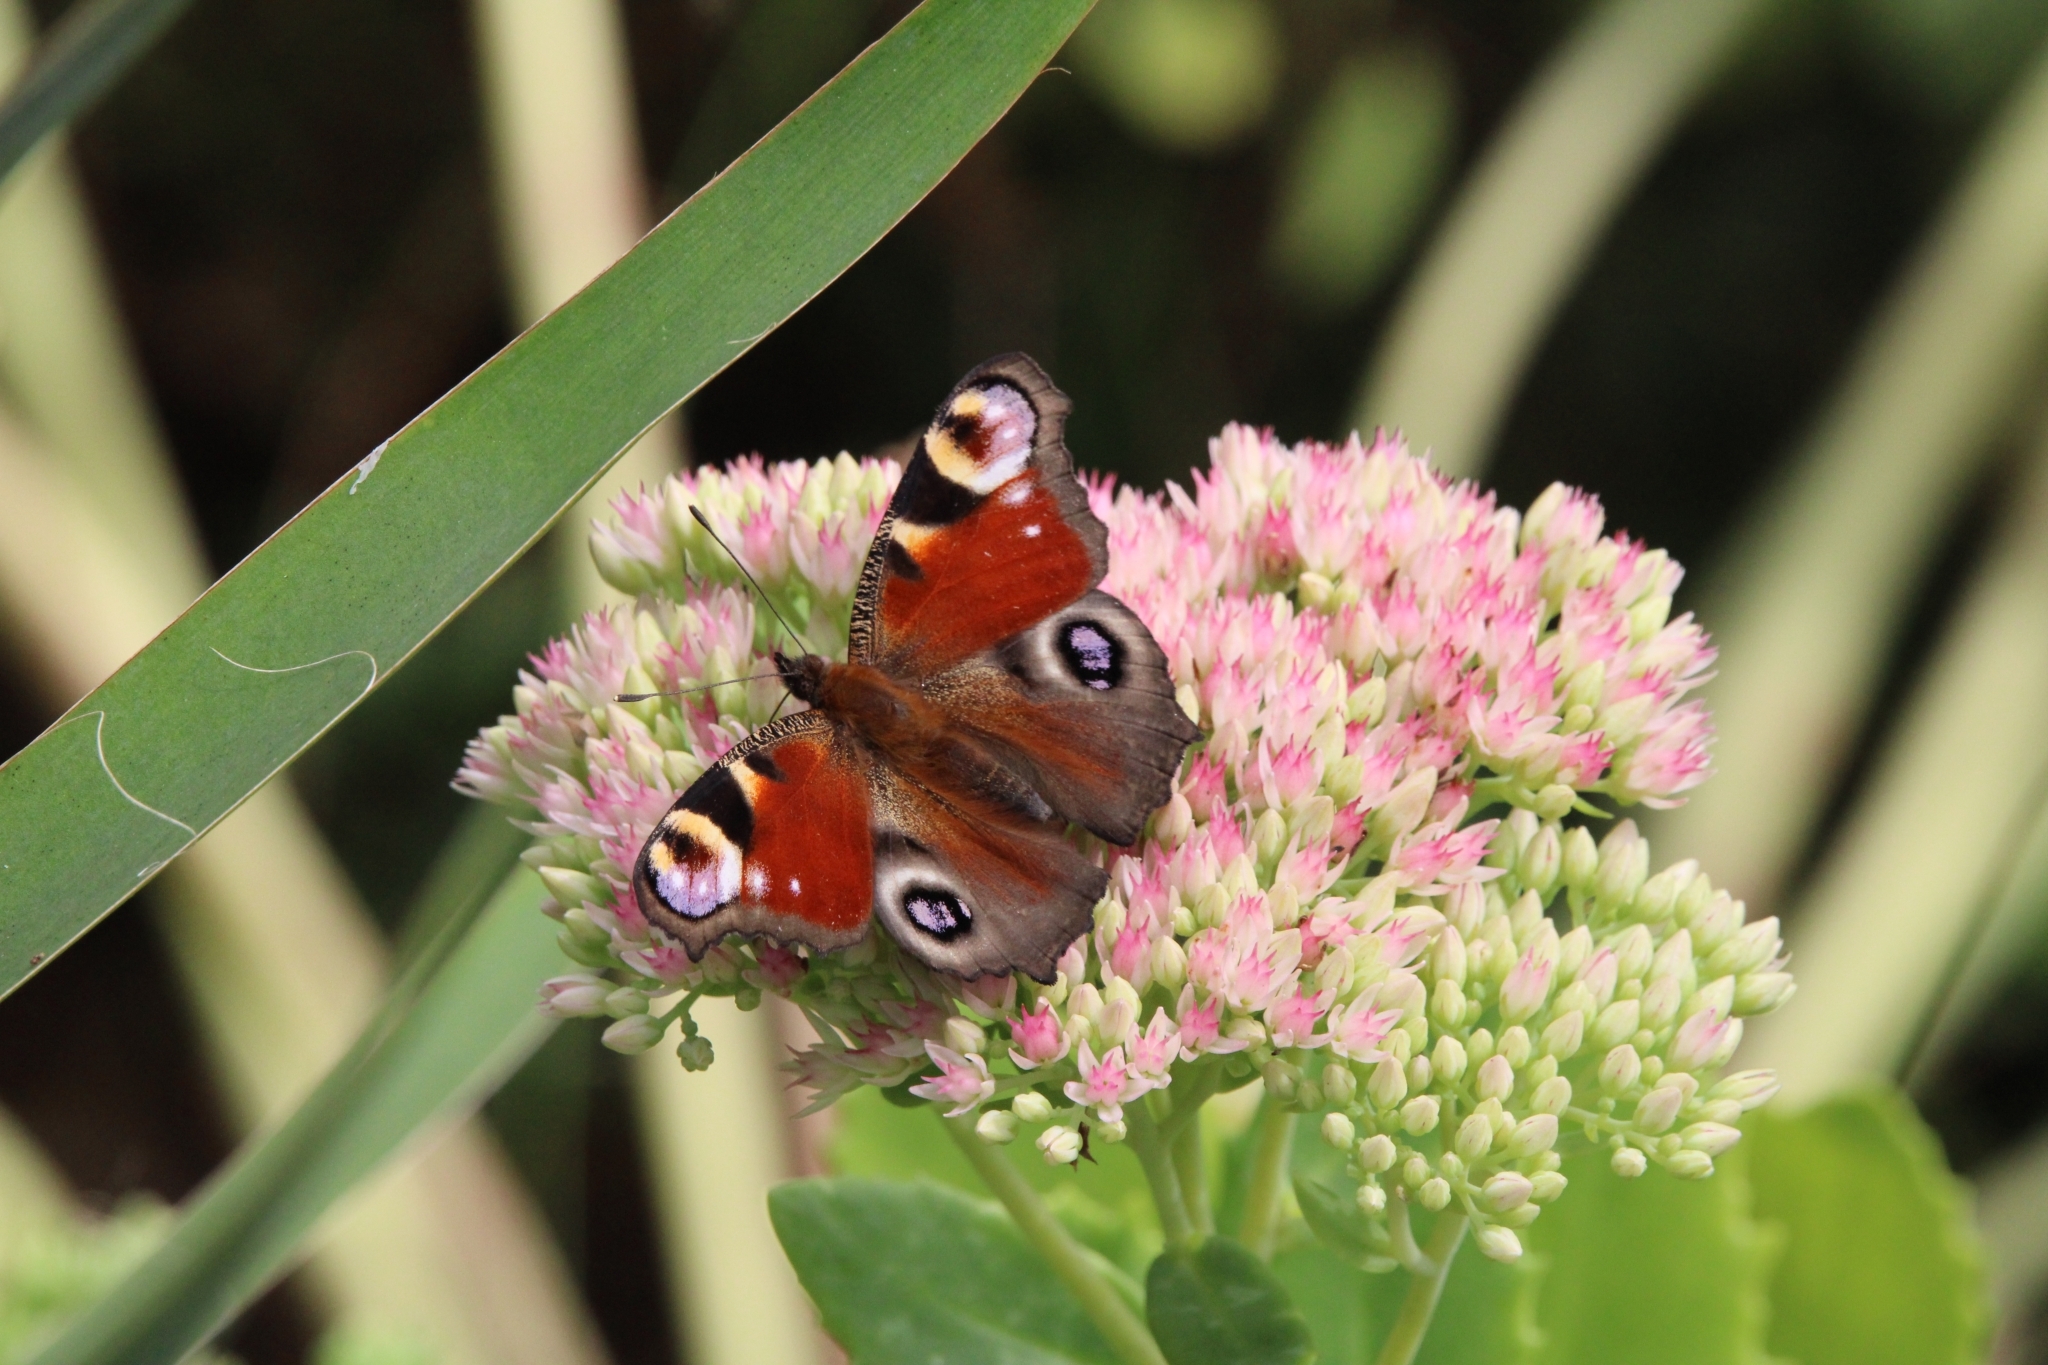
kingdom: Animalia
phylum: Arthropoda
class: Insecta
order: Lepidoptera
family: Nymphalidae
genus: Aglais
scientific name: Aglais io
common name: Peacock
